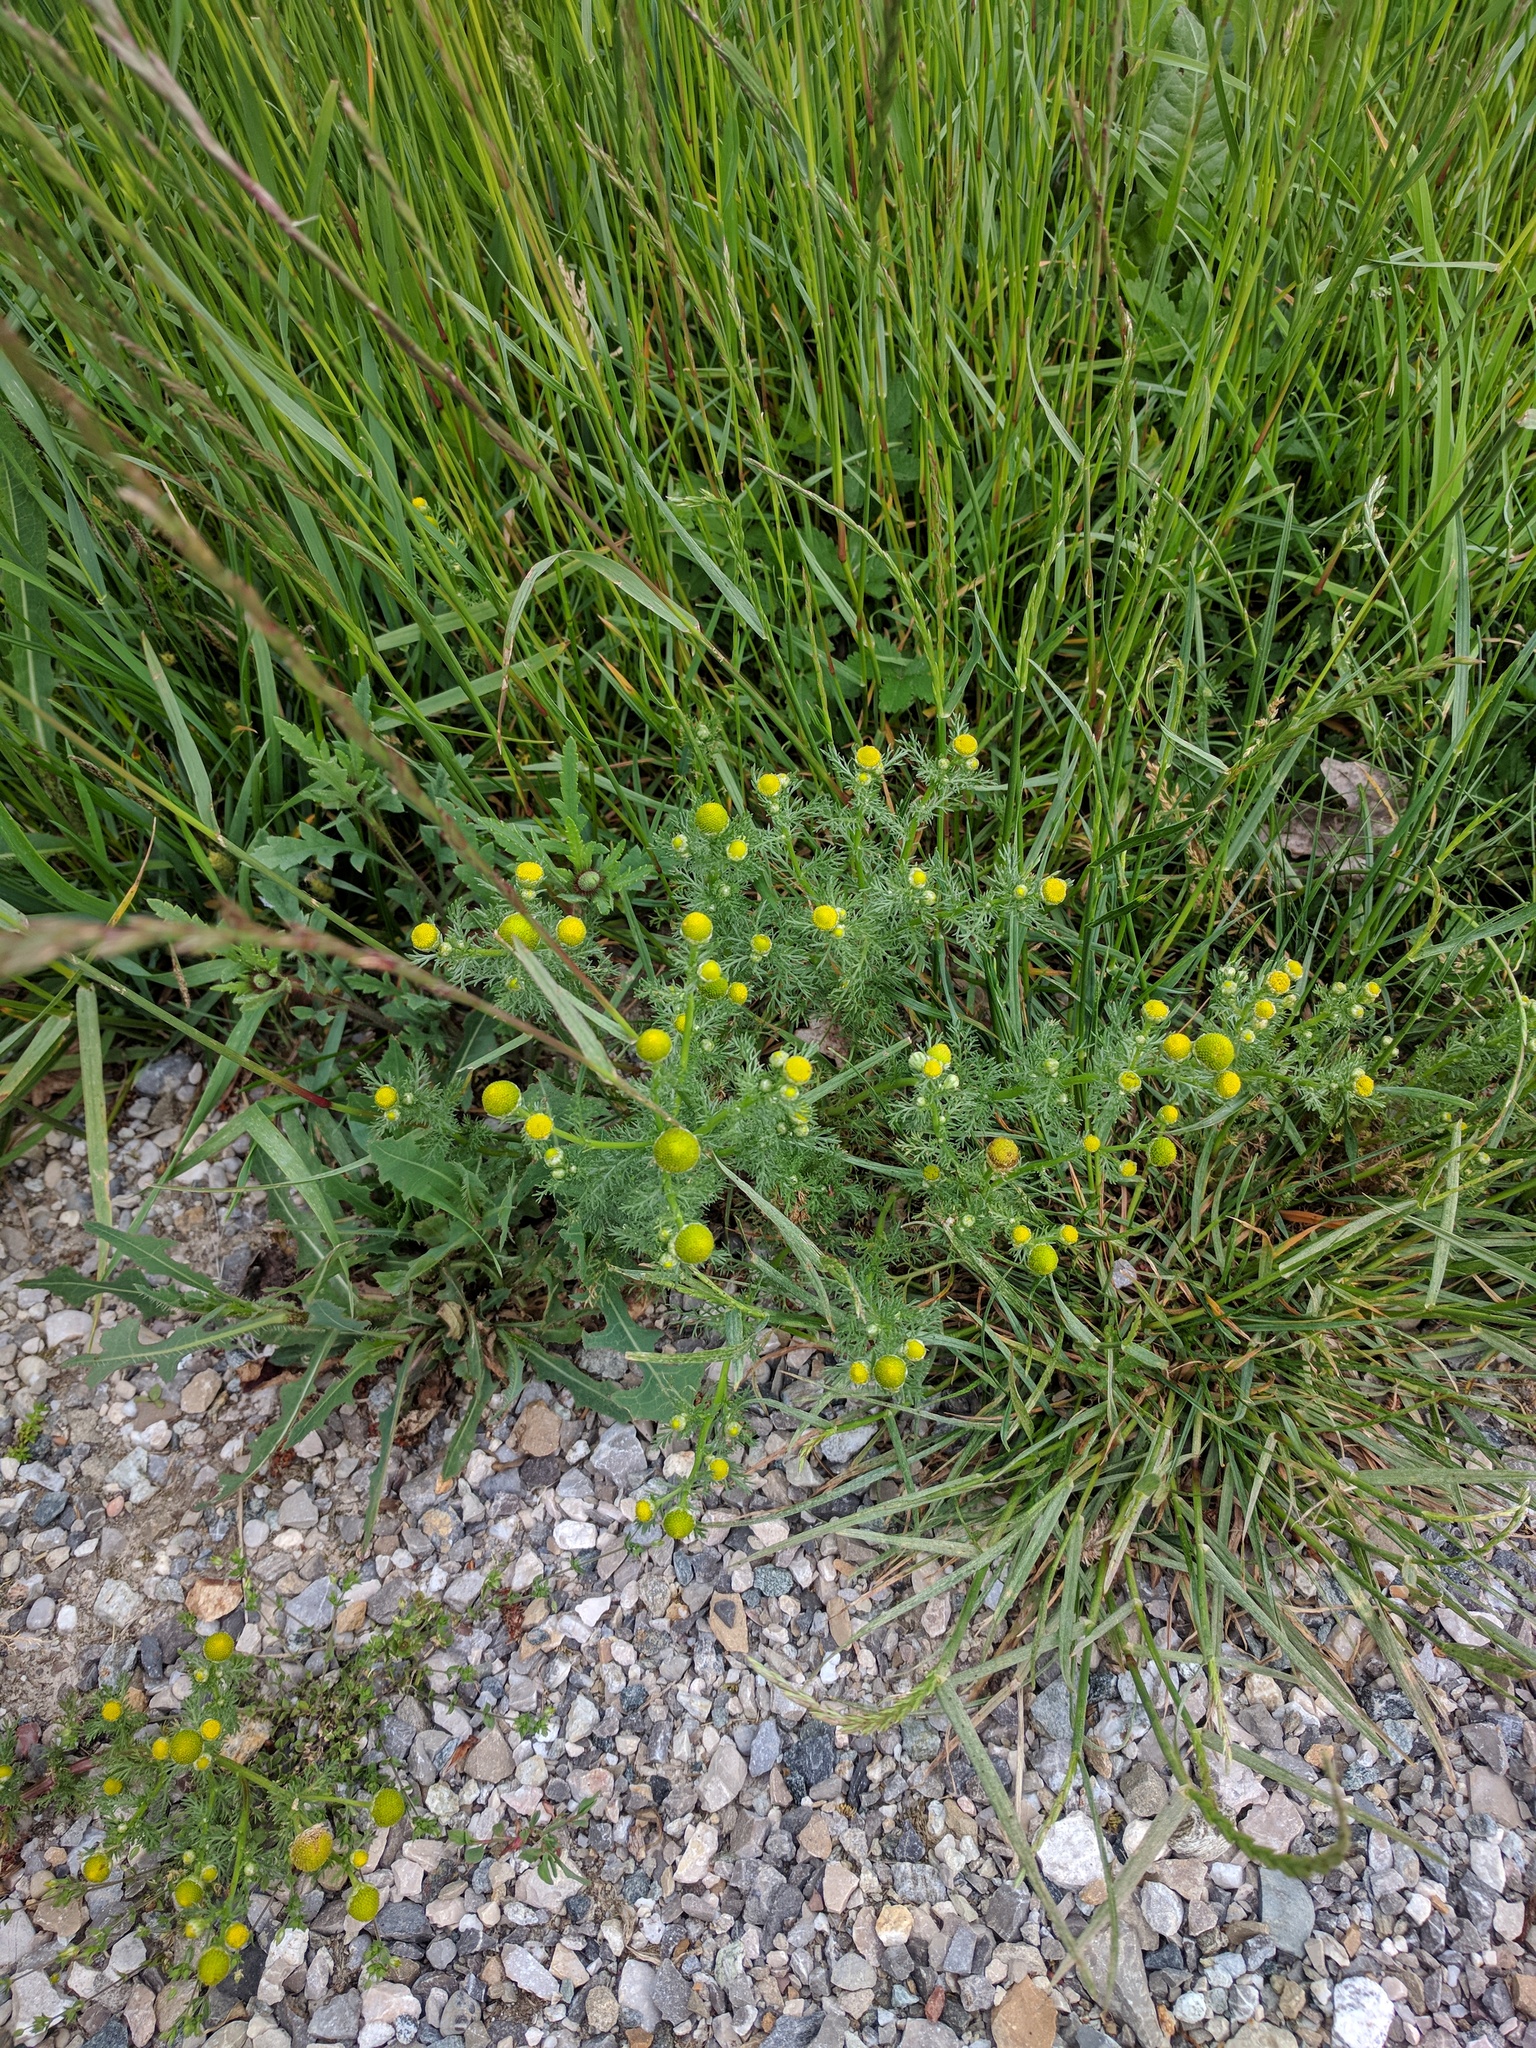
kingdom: Plantae
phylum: Tracheophyta
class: Magnoliopsida
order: Asterales
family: Asteraceae
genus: Matricaria
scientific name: Matricaria discoidea
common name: Disc mayweed
